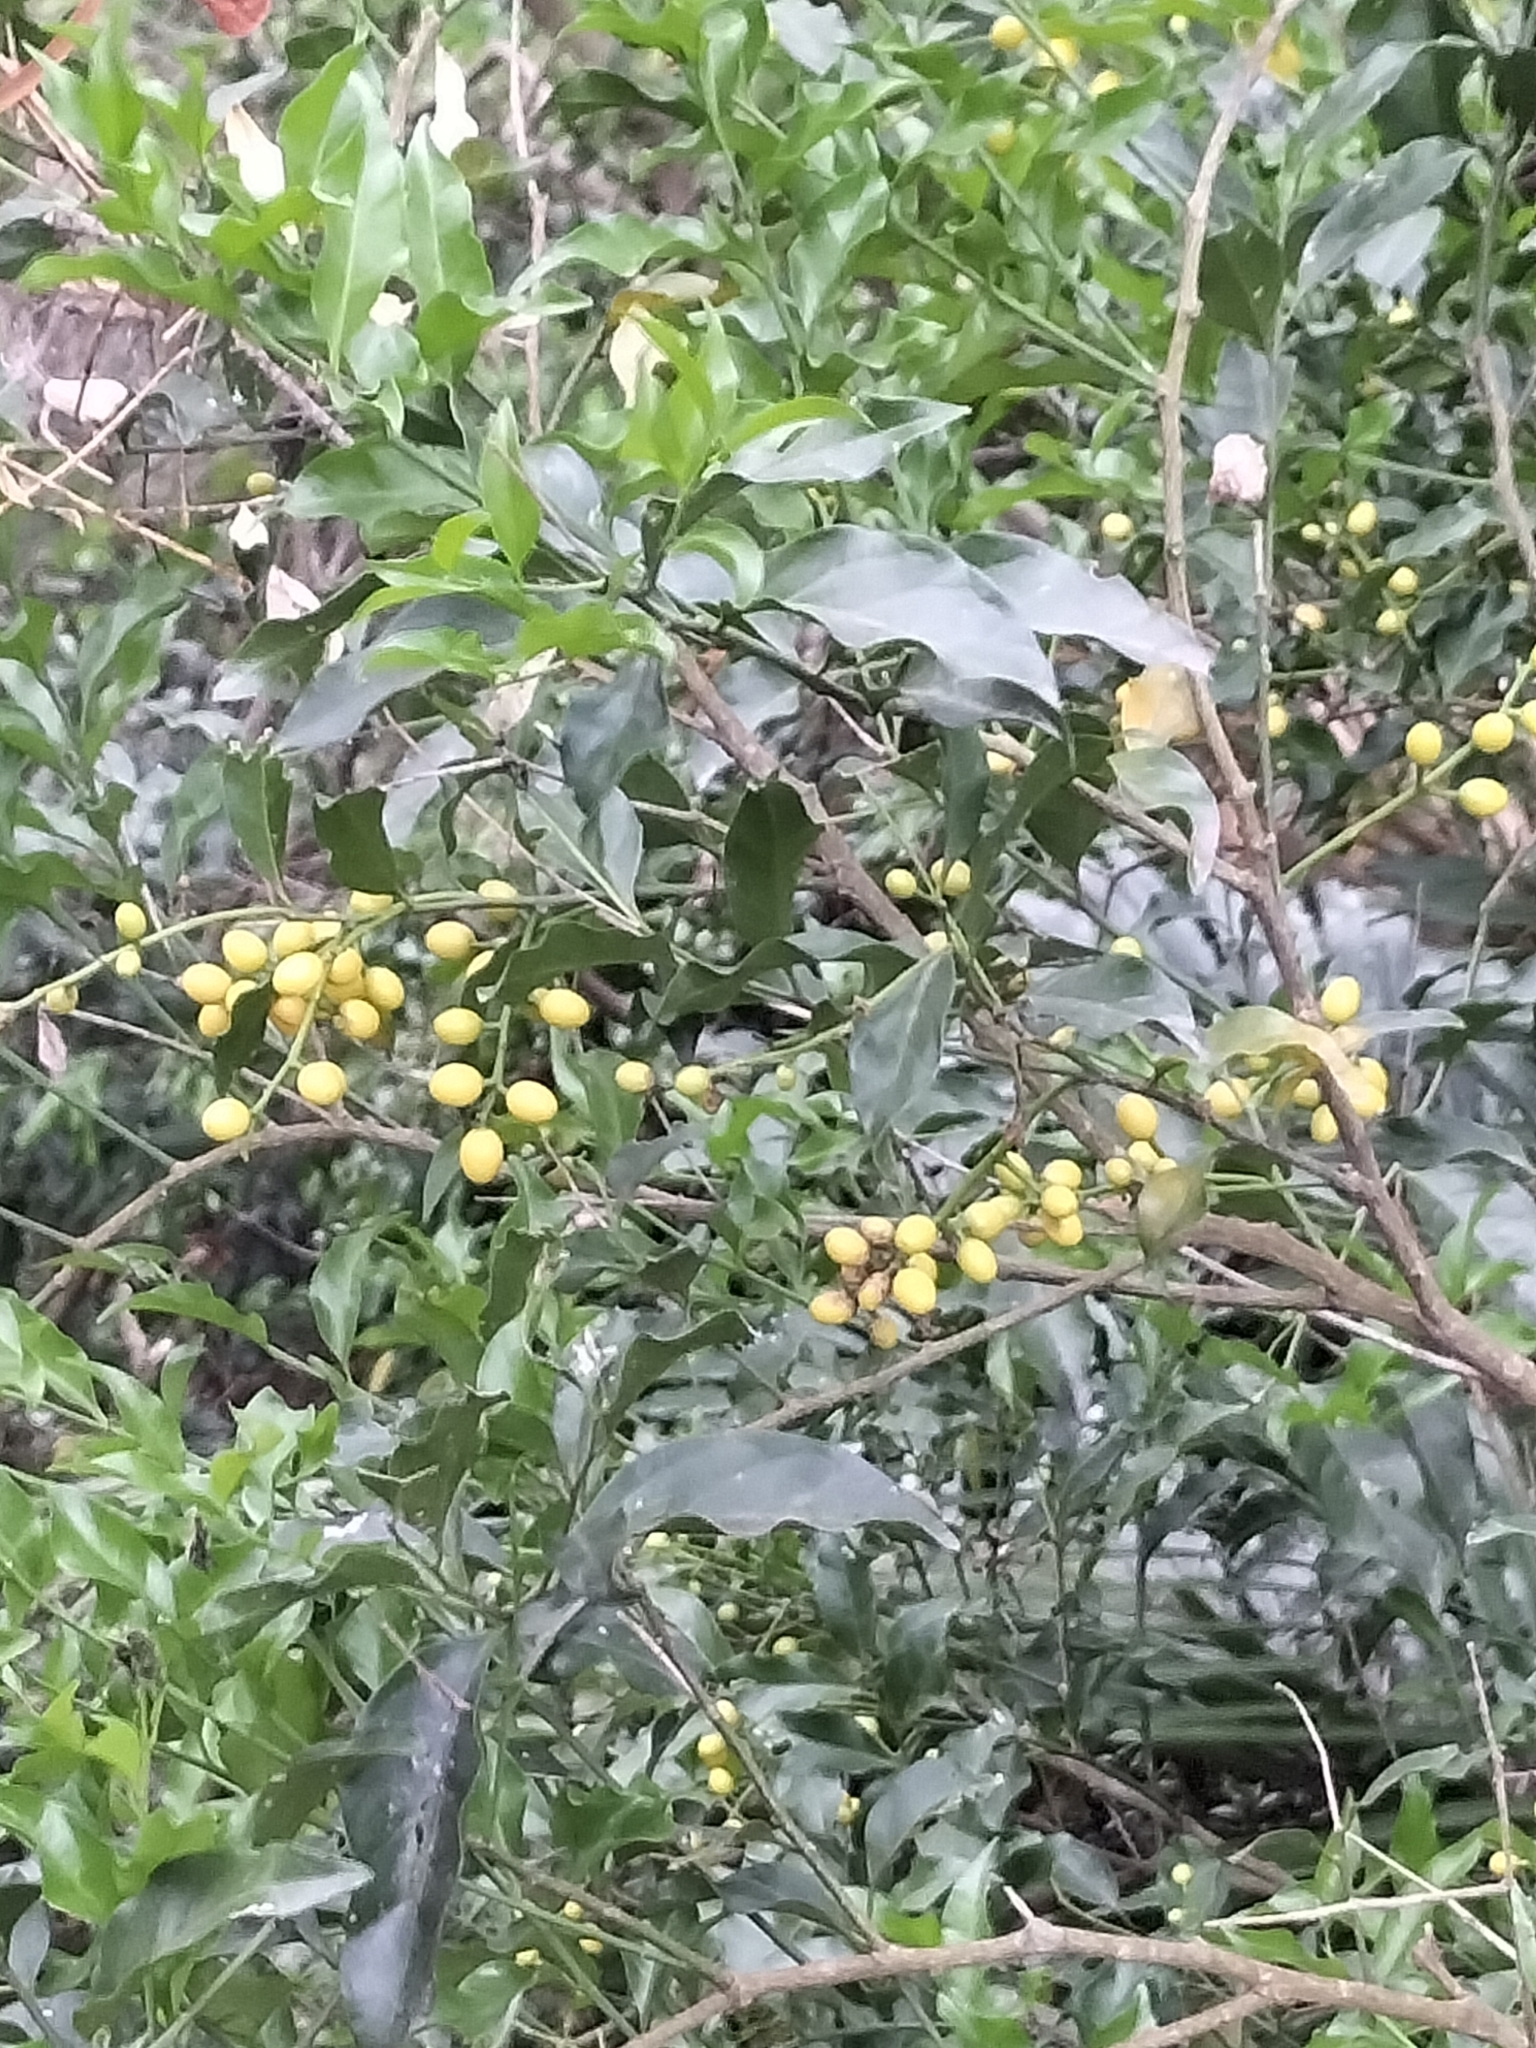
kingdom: Plantae
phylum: Tracheophyta
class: Magnoliopsida
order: Santalales
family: Opiliaceae
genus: Champereia
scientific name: Champereia manillana
